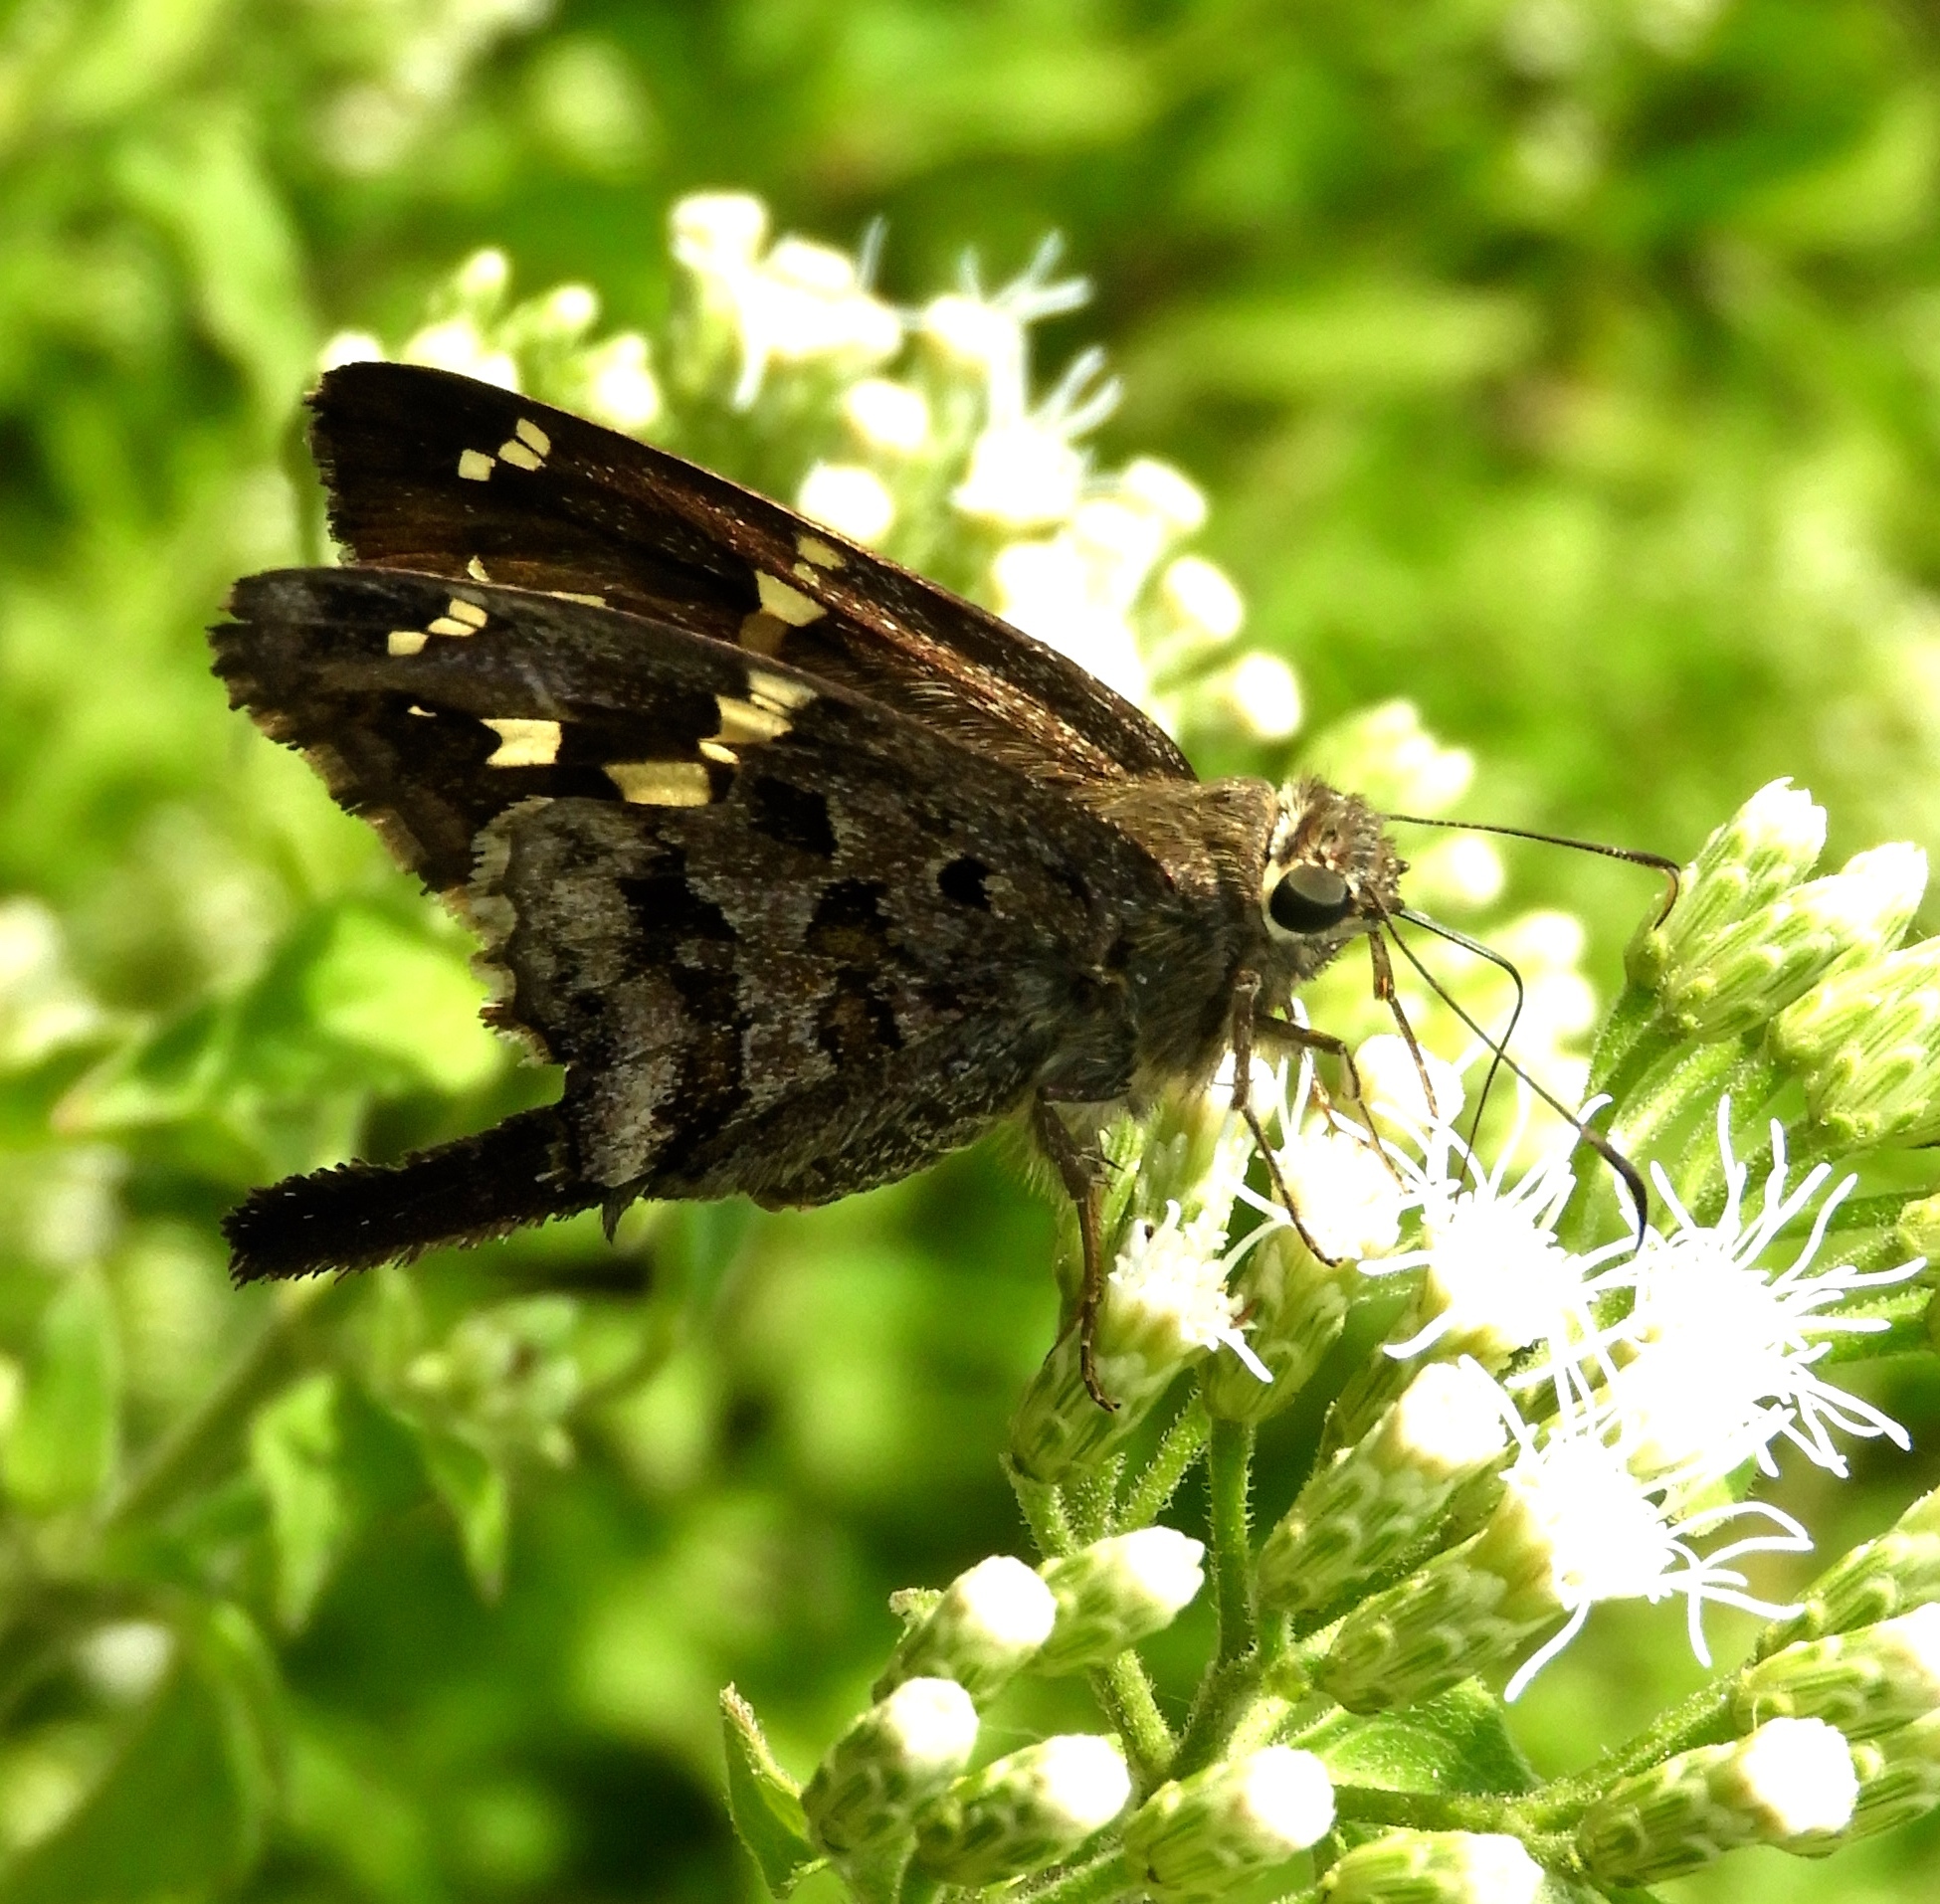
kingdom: Animalia
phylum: Arthropoda
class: Insecta
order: Lepidoptera
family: Hesperiidae
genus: Thorybes
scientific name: Thorybes
